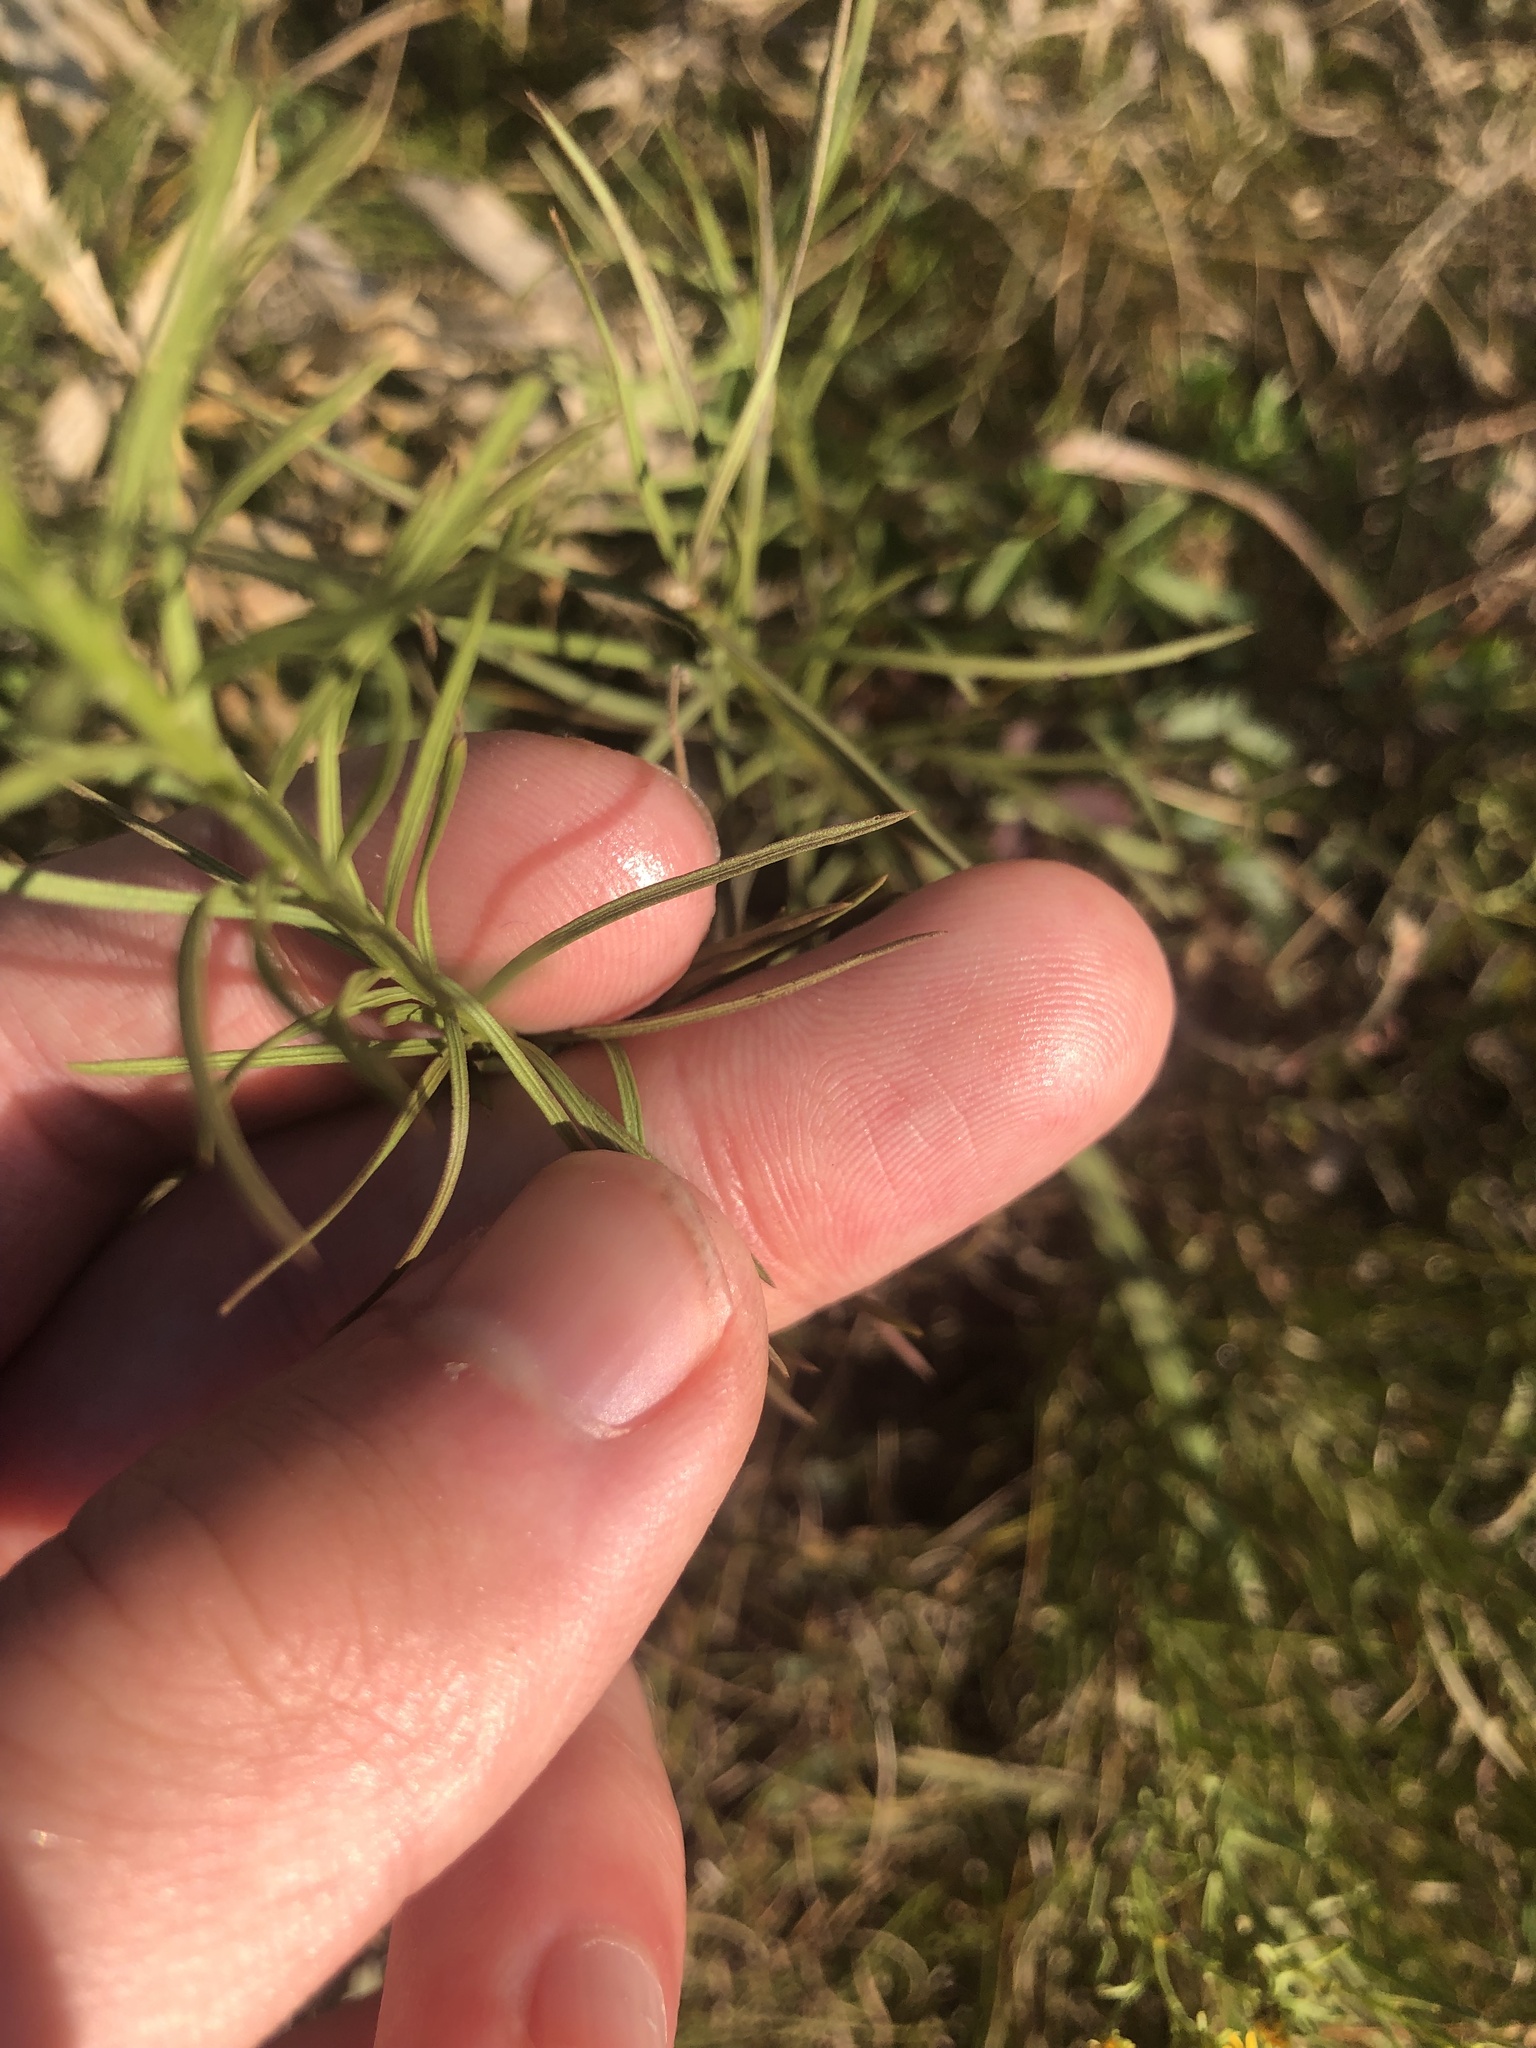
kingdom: Plantae
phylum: Tracheophyta
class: Magnoliopsida
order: Asterales
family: Asteraceae
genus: Galatella
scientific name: Galatella linosyris
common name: Goldilocks aster
